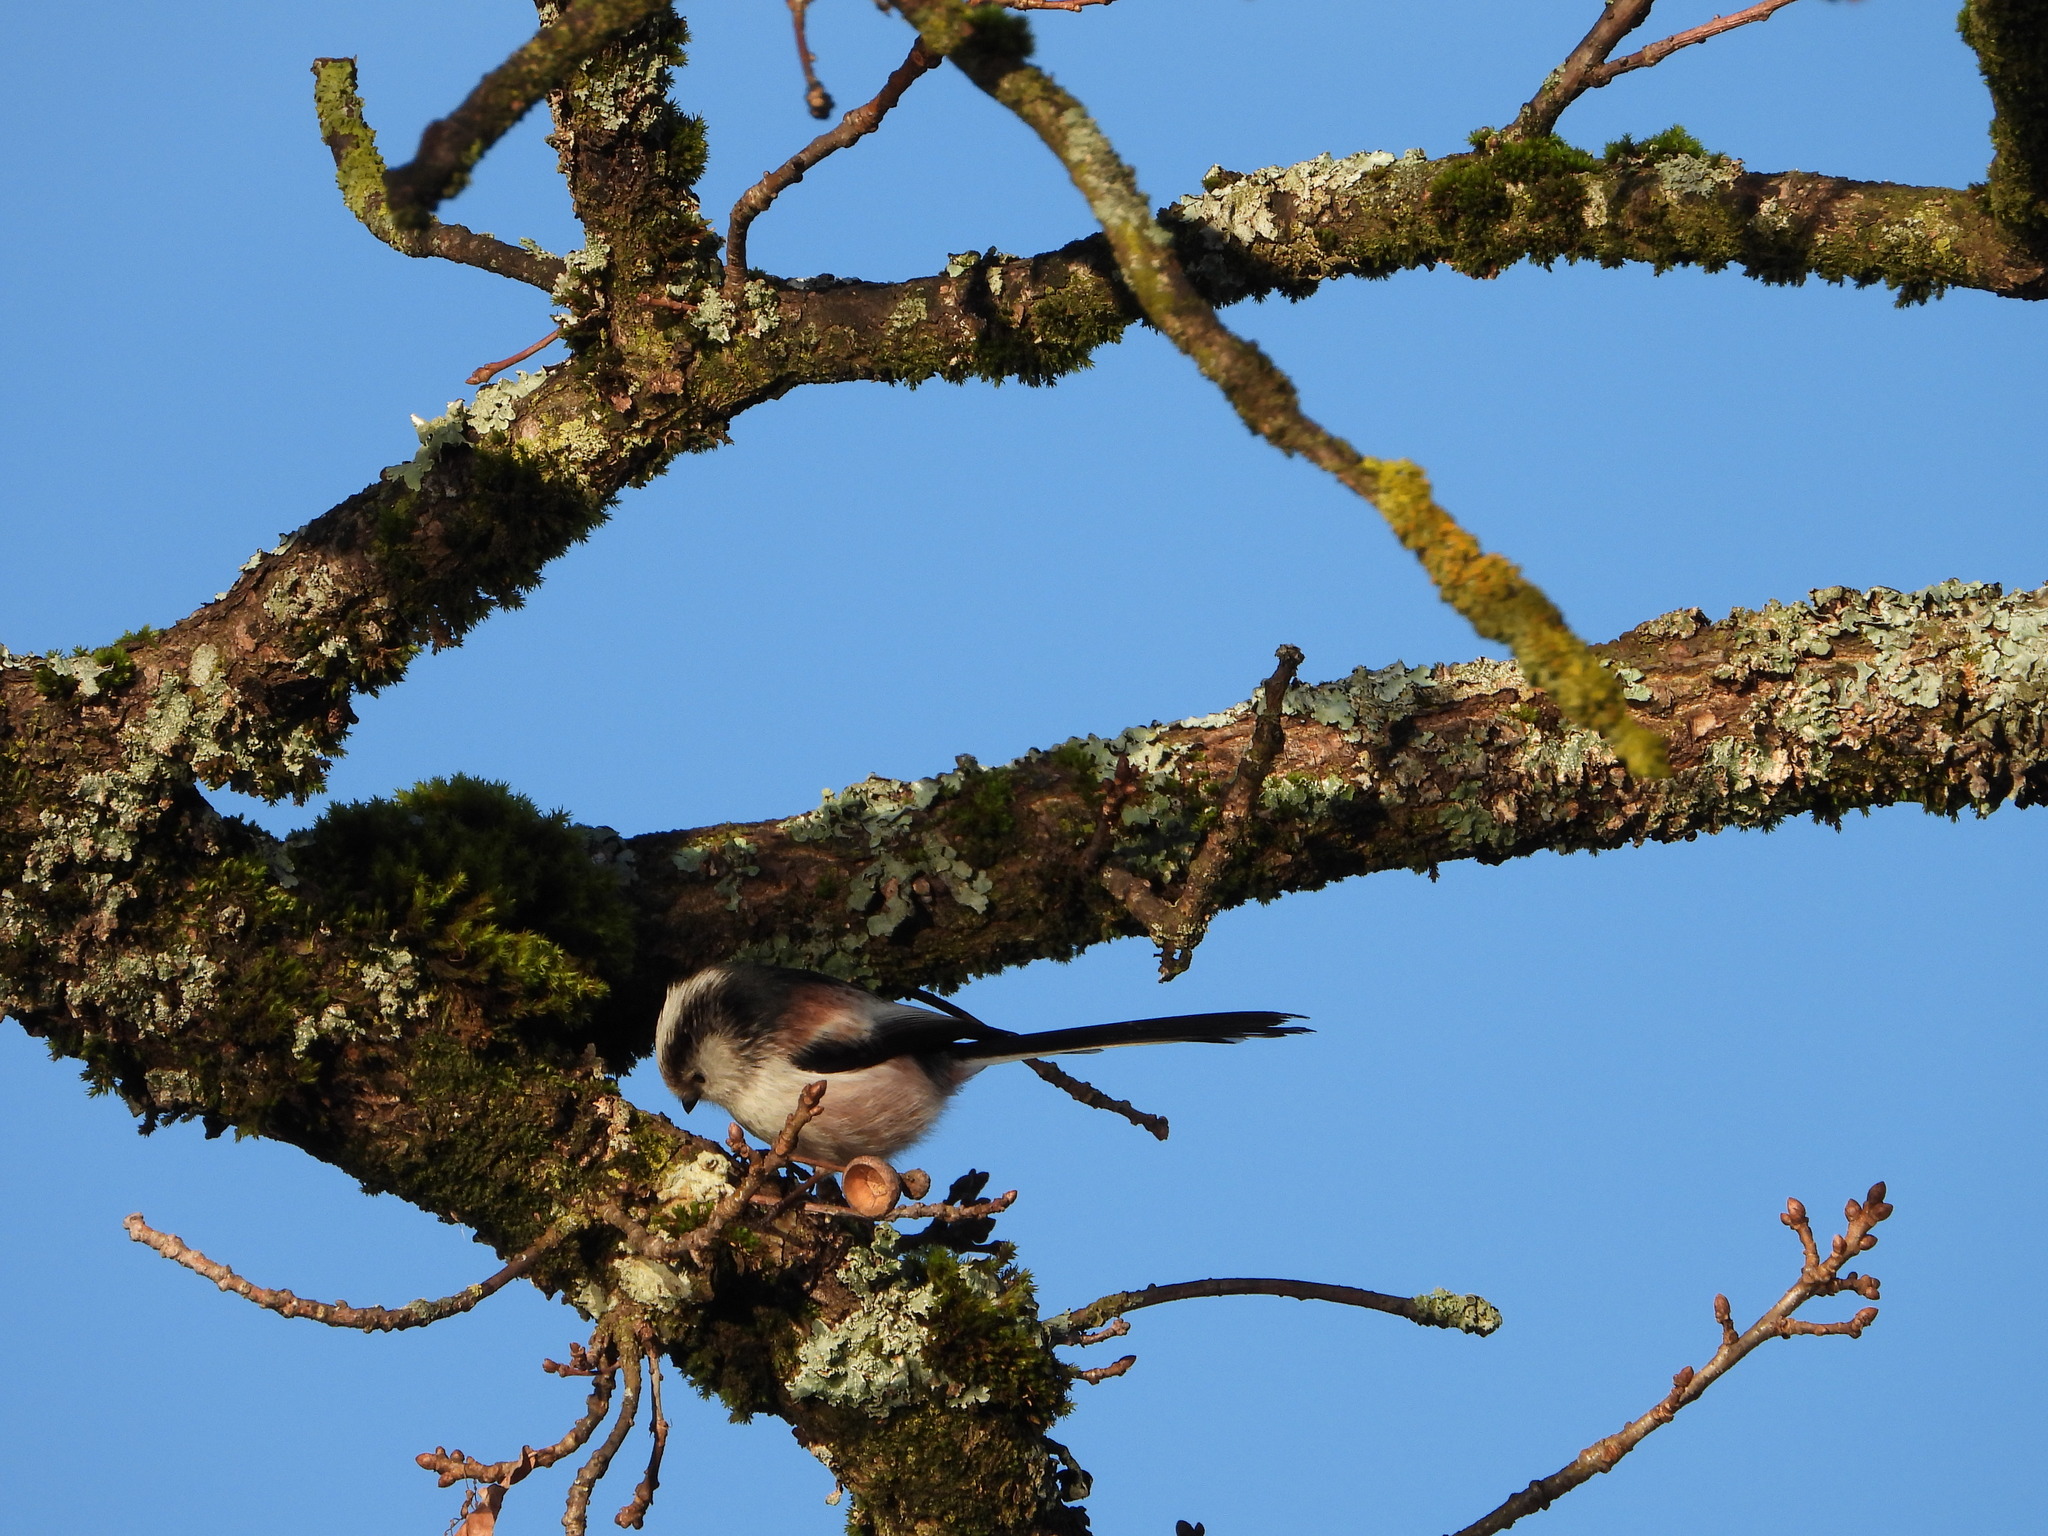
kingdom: Animalia
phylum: Chordata
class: Aves
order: Passeriformes
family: Aegithalidae
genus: Aegithalos
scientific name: Aegithalos caudatus
